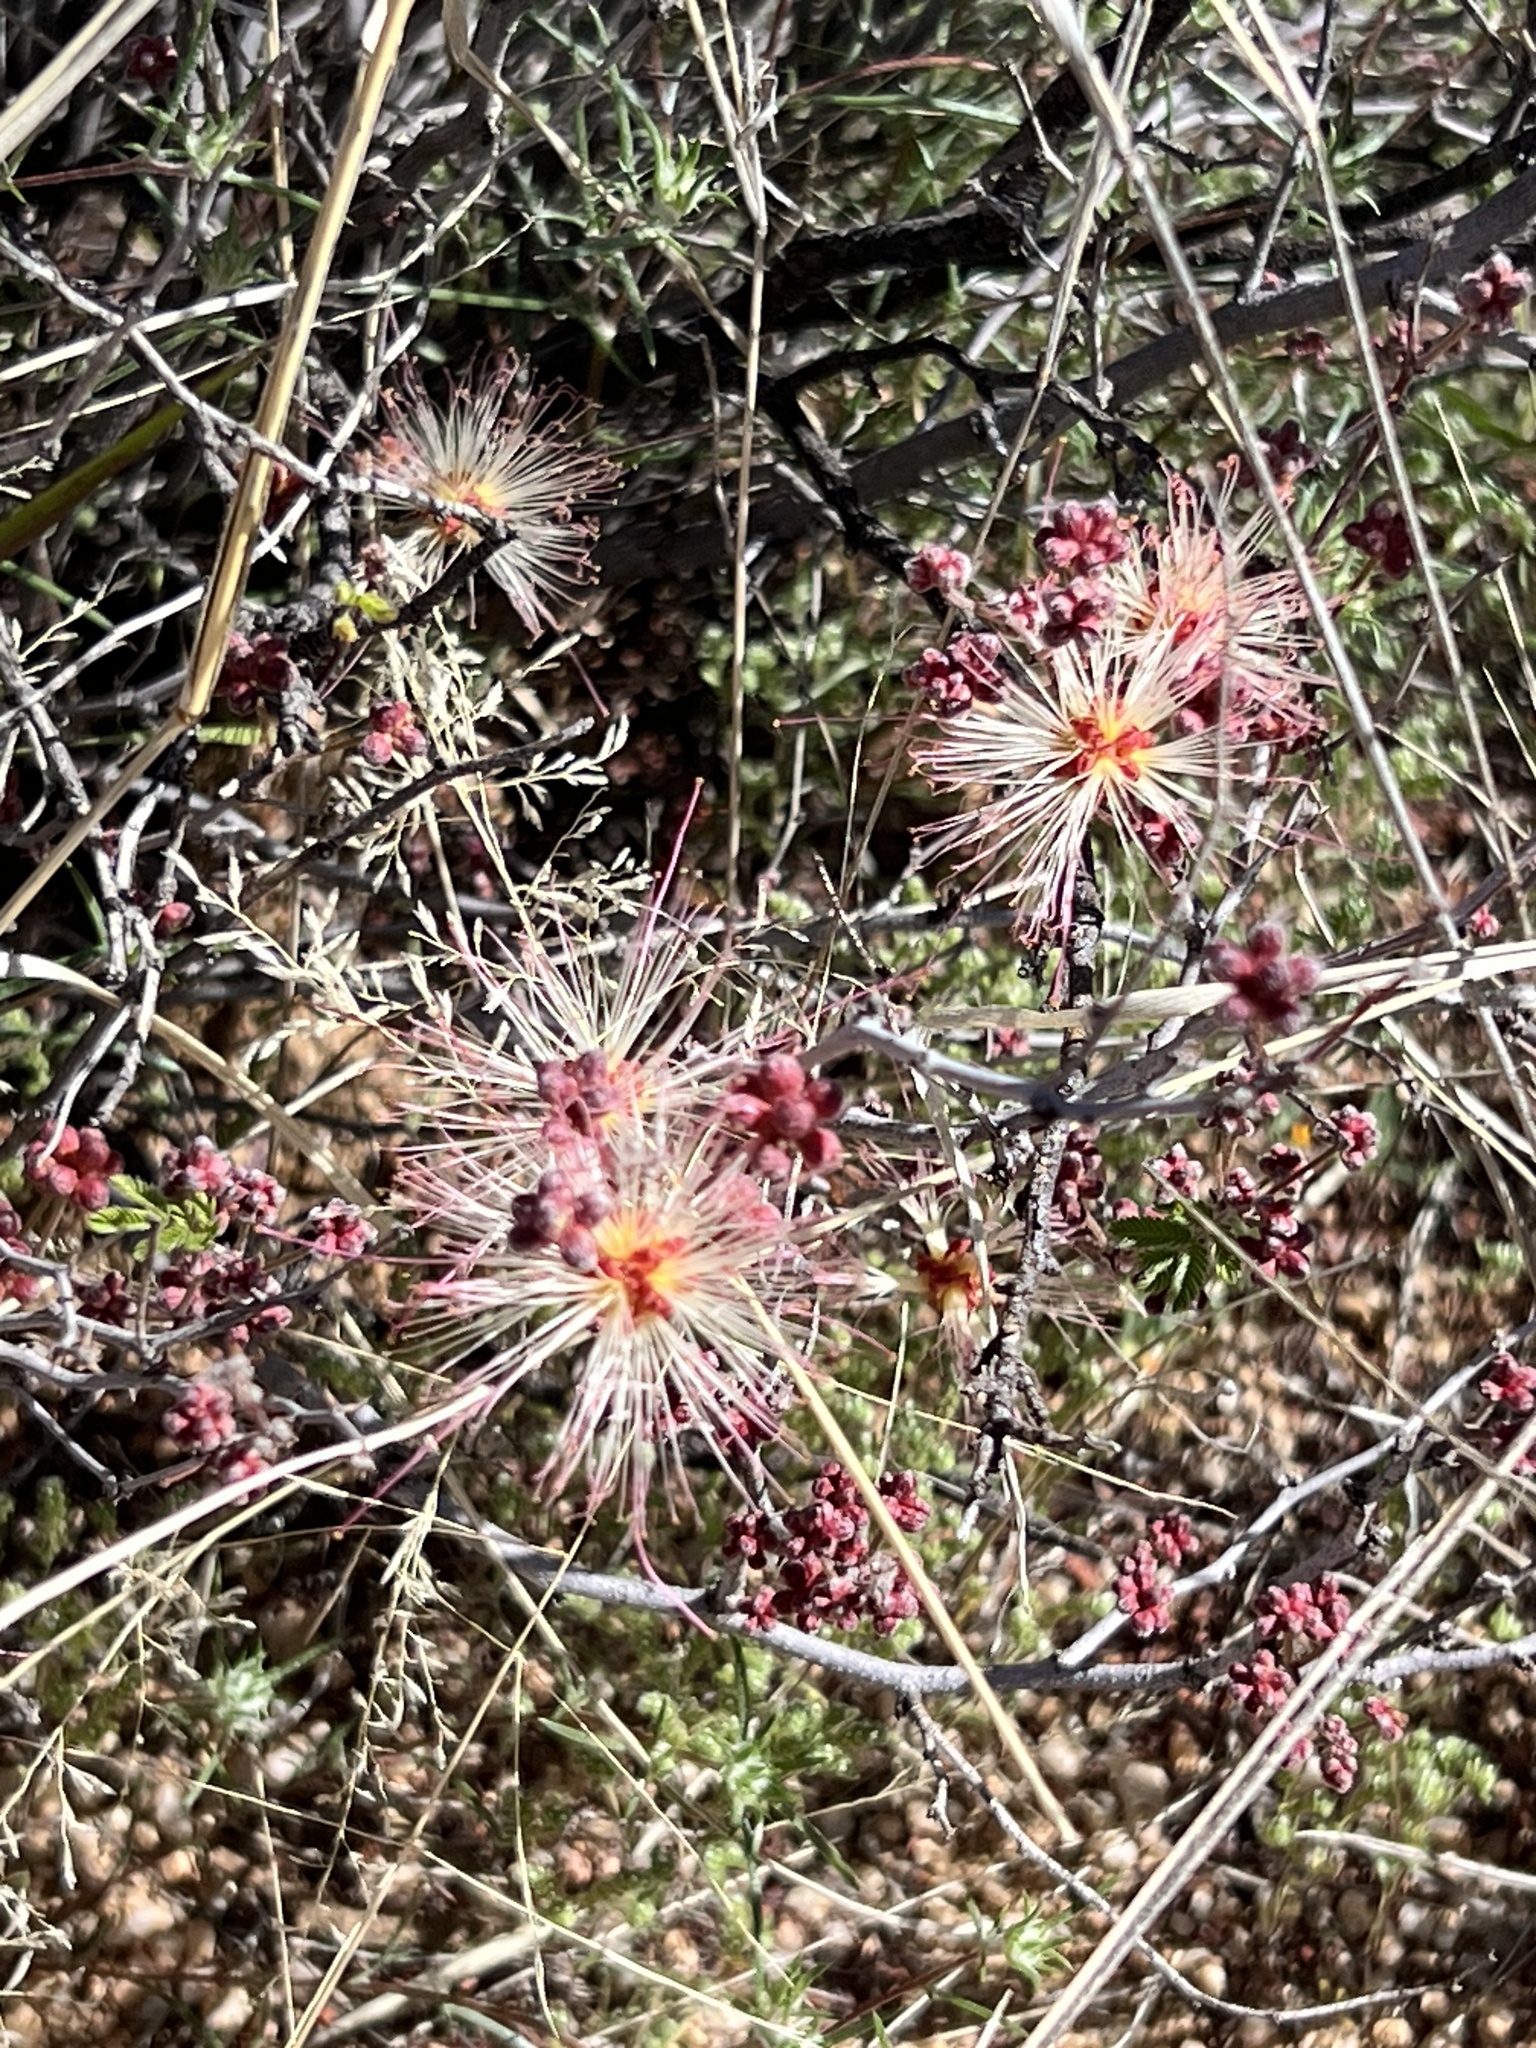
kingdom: Plantae
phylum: Tracheophyta
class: Magnoliopsida
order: Fabales
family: Fabaceae
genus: Calliandra
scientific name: Calliandra eriophylla
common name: Fairy-duster
